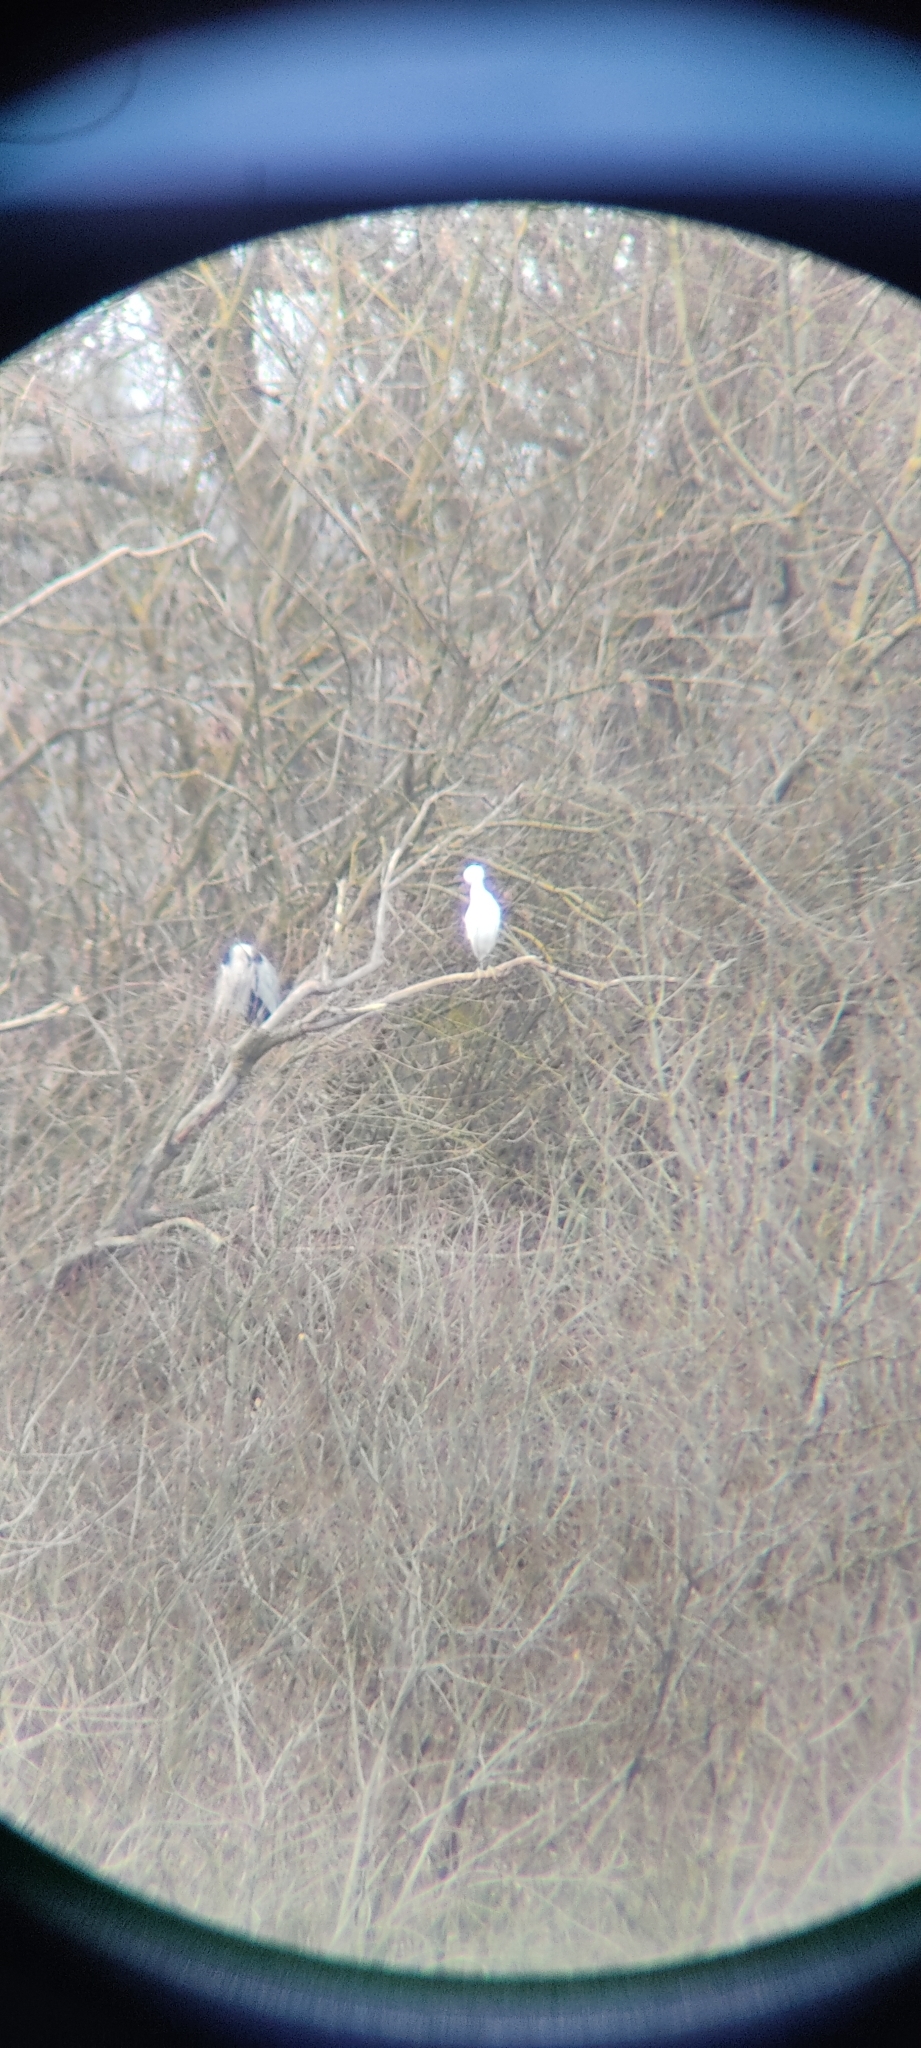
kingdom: Animalia
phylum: Chordata
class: Aves
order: Pelecaniformes
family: Ardeidae
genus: Egretta
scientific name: Egretta garzetta
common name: Little egret
